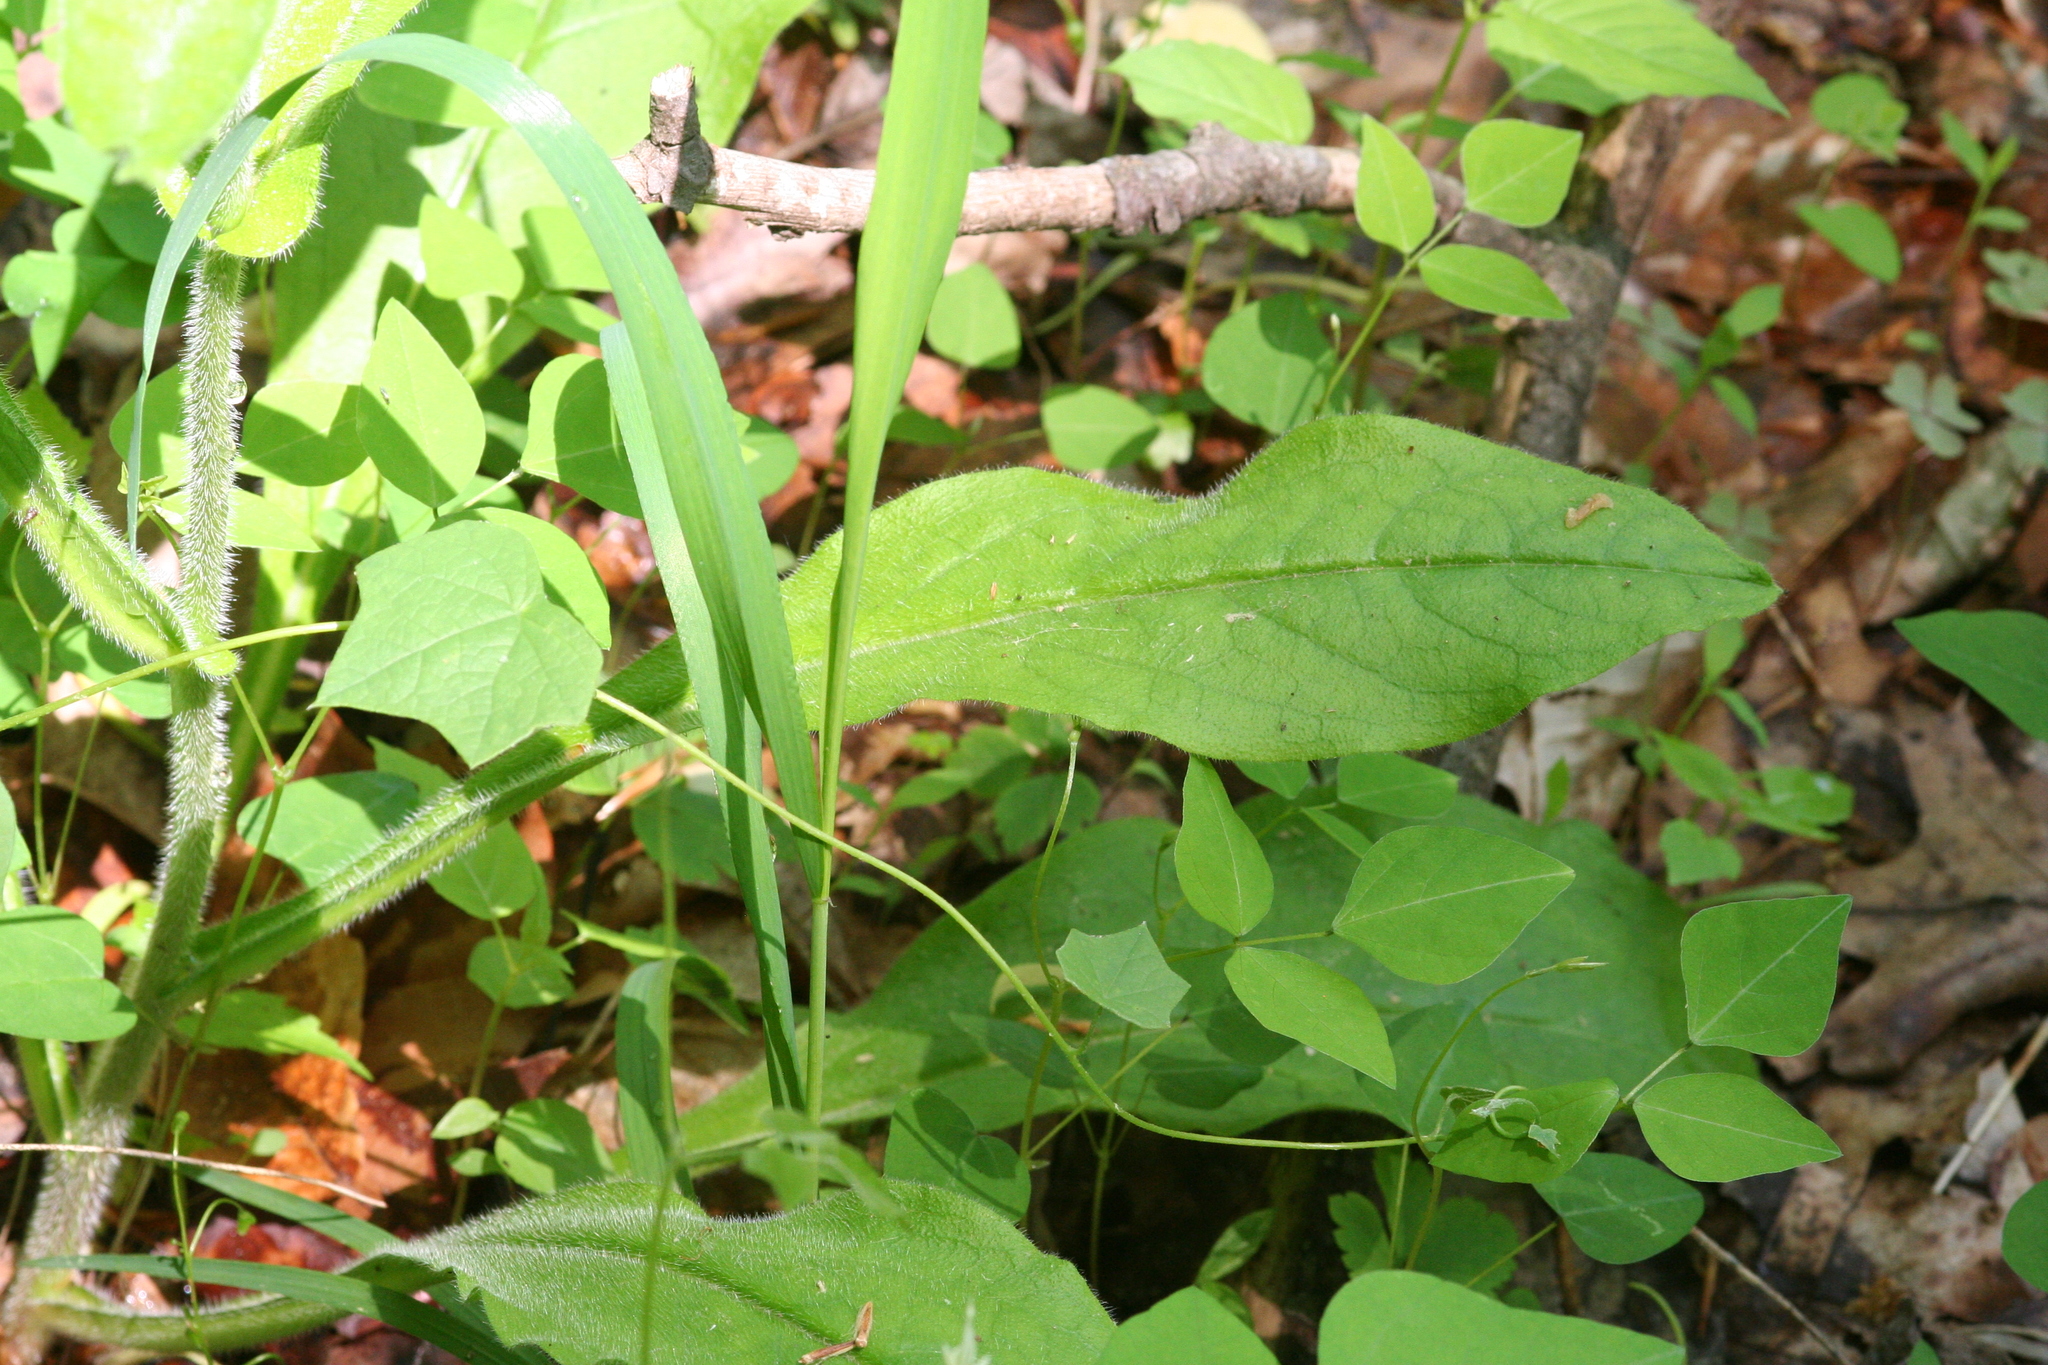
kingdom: Plantae
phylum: Tracheophyta
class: Magnoliopsida
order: Boraginales
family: Boraginaceae
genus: Andersonglossum
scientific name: Andersonglossum virginianum
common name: Wild comfrey
